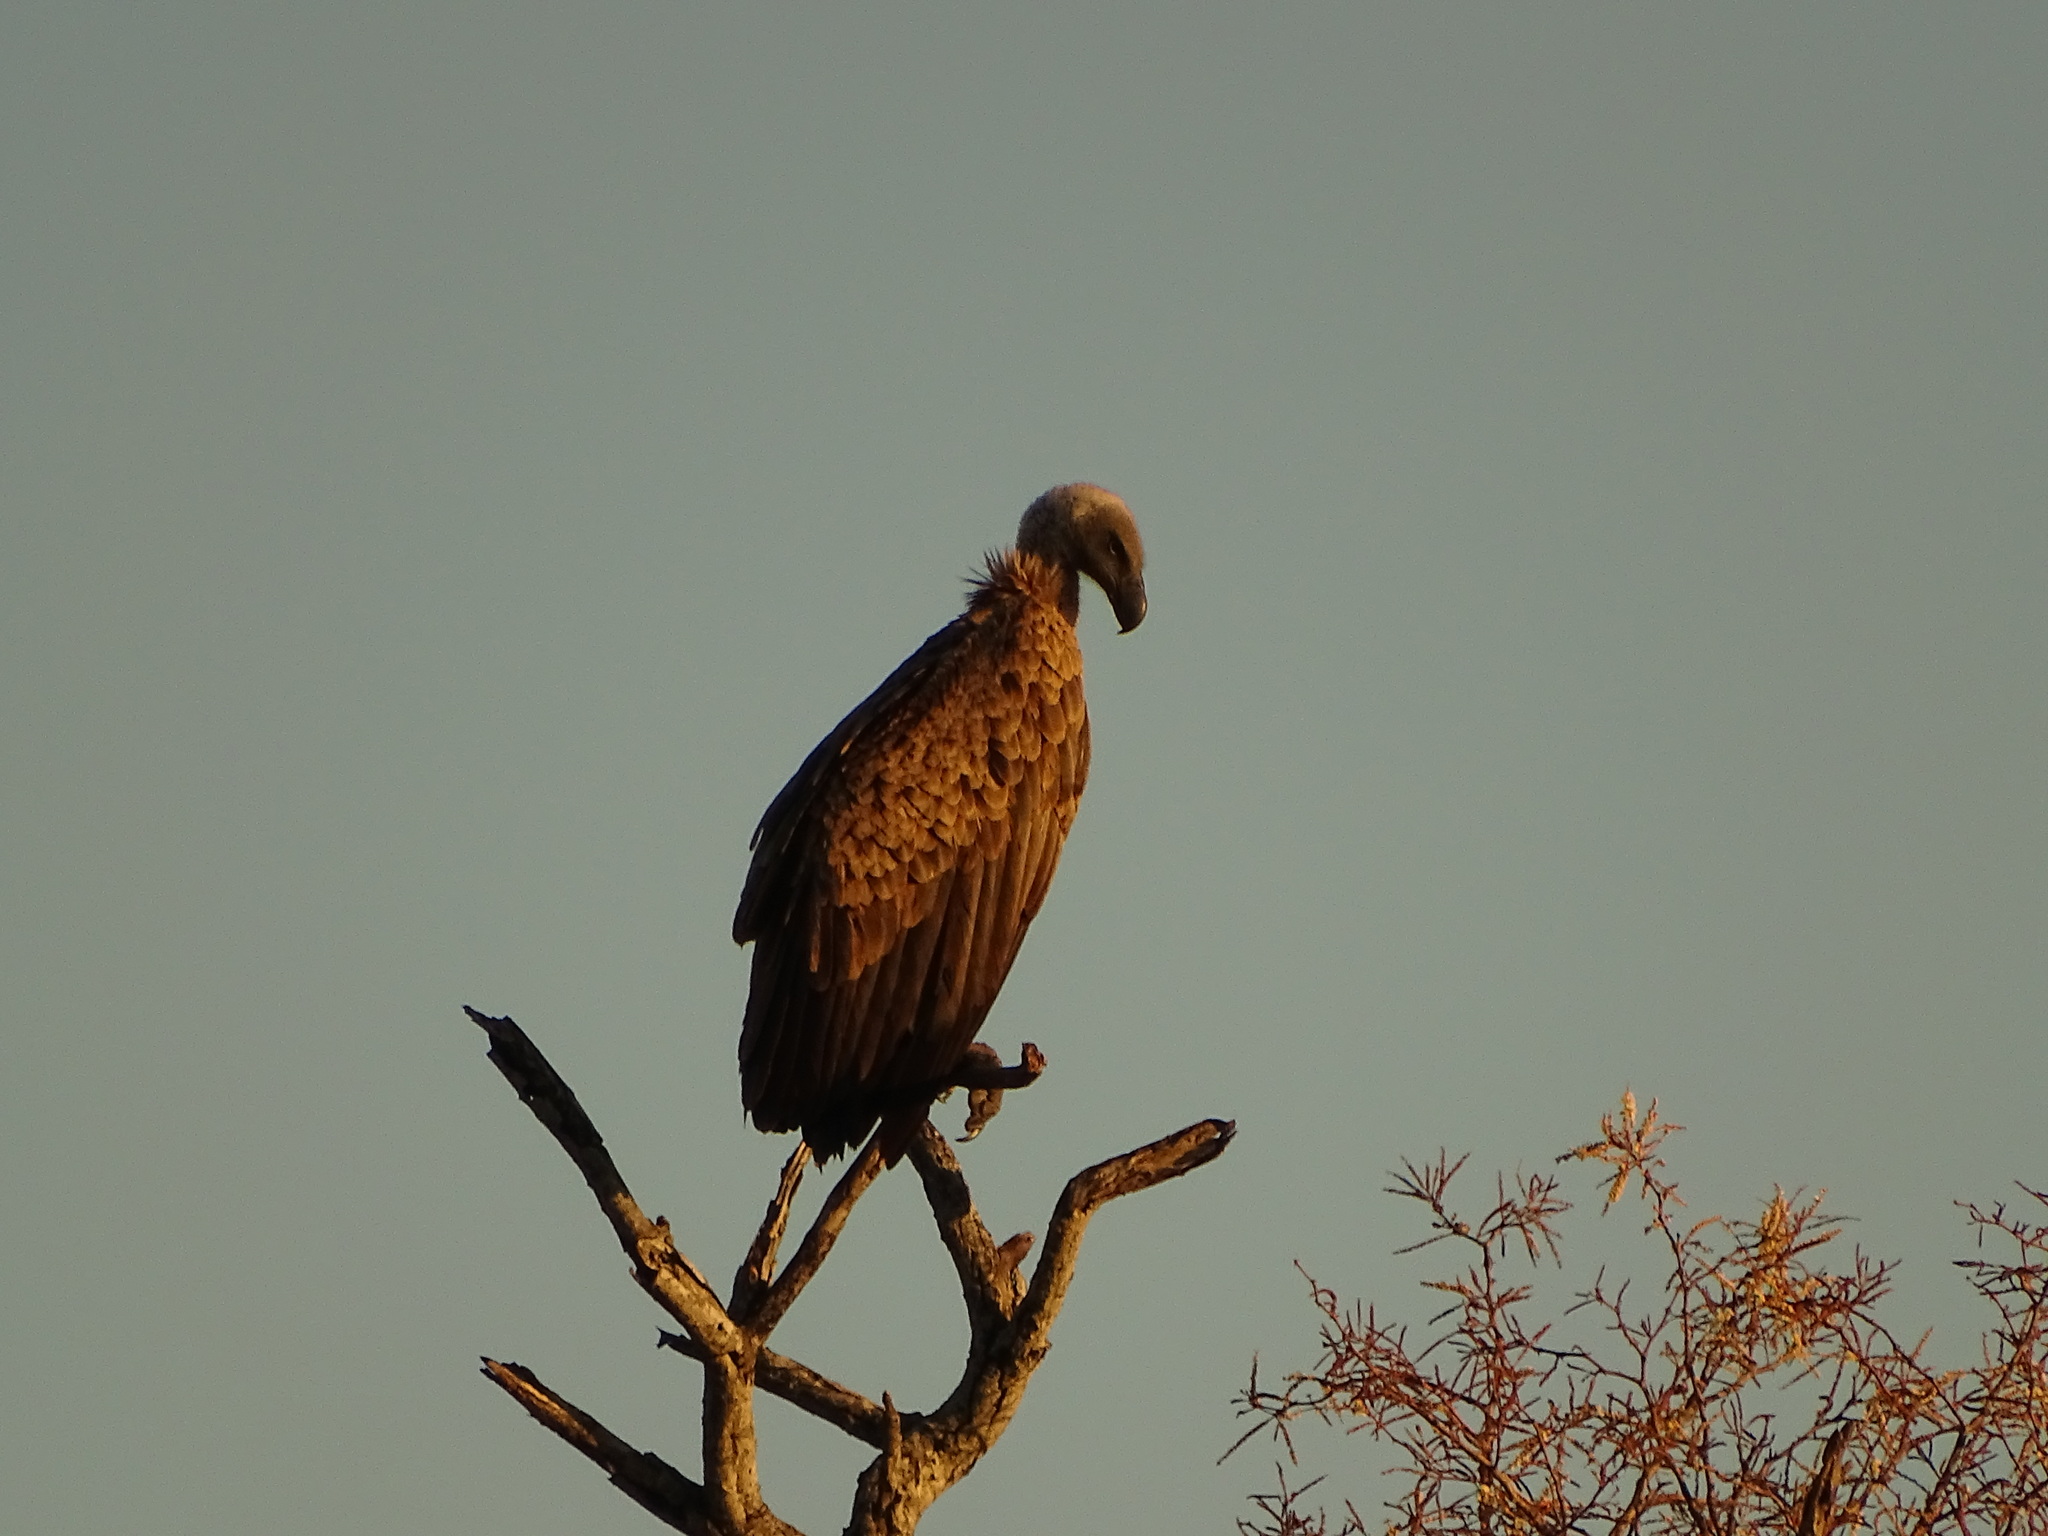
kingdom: Animalia
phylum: Chordata
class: Aves
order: Accipitriformes
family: Accipitridae
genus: Gyps
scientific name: Gyps africanus
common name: White-backed vulture
